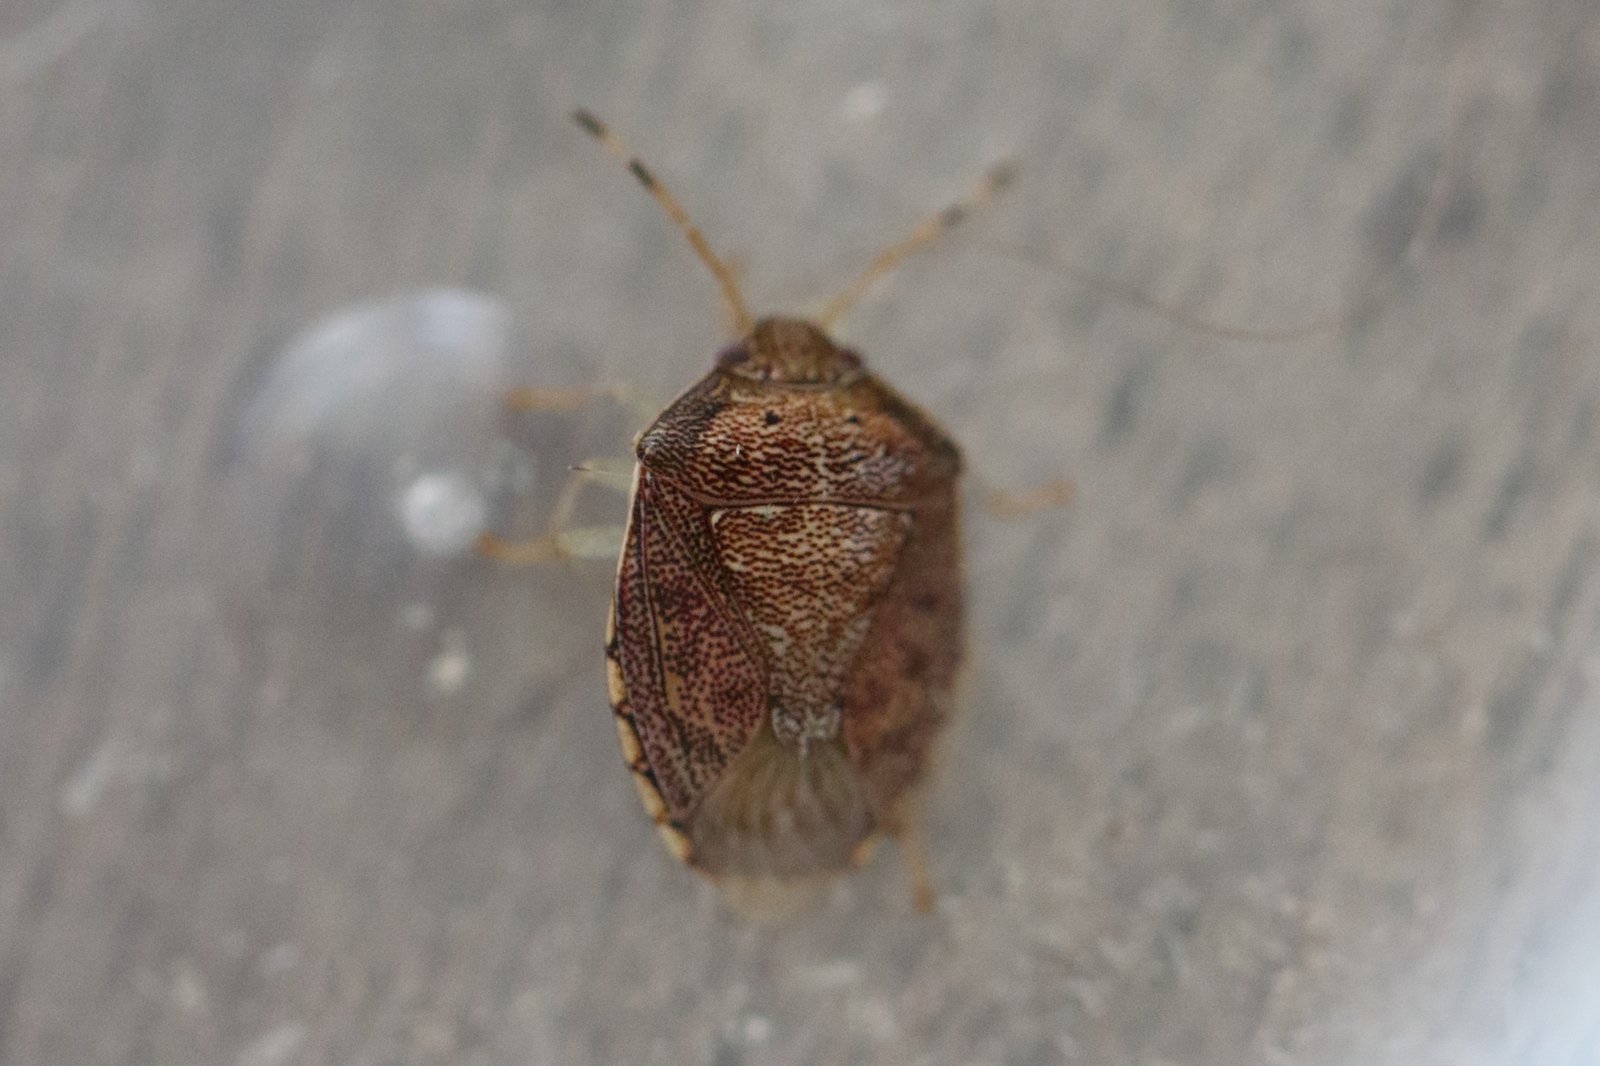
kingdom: Animalia
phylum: Arthropoda
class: Insecta
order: Hemiptera
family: Pentatomidae
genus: Menida
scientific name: Menida
